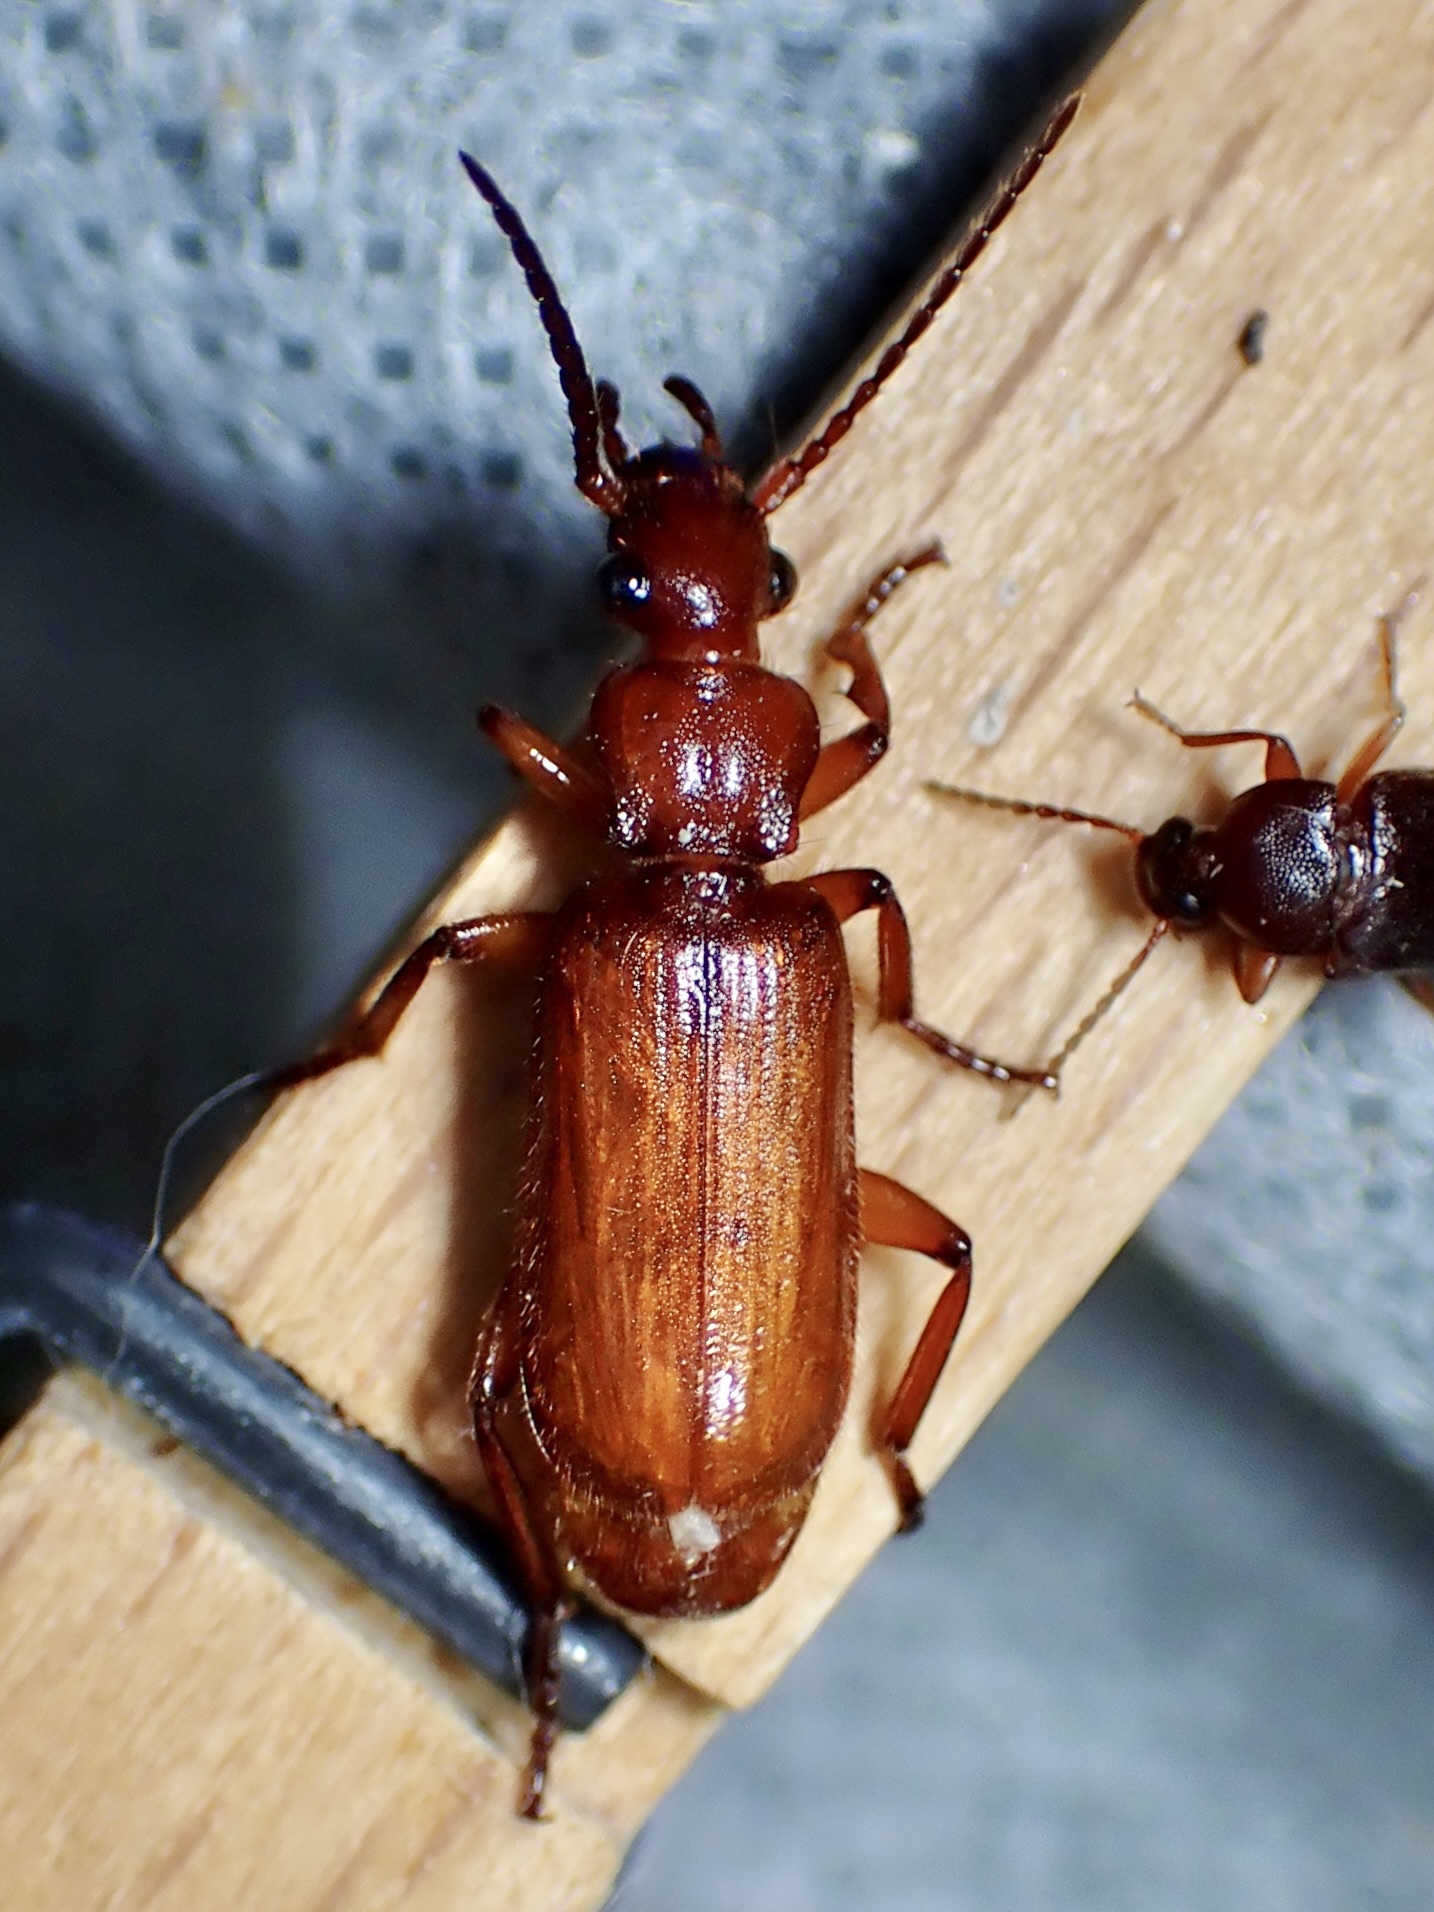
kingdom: Animalia
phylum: Arthropoda
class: Insecta
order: Coleoptera
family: Carabidae
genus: Helluomorphoides
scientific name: Helluomorphoides ferrugineus
